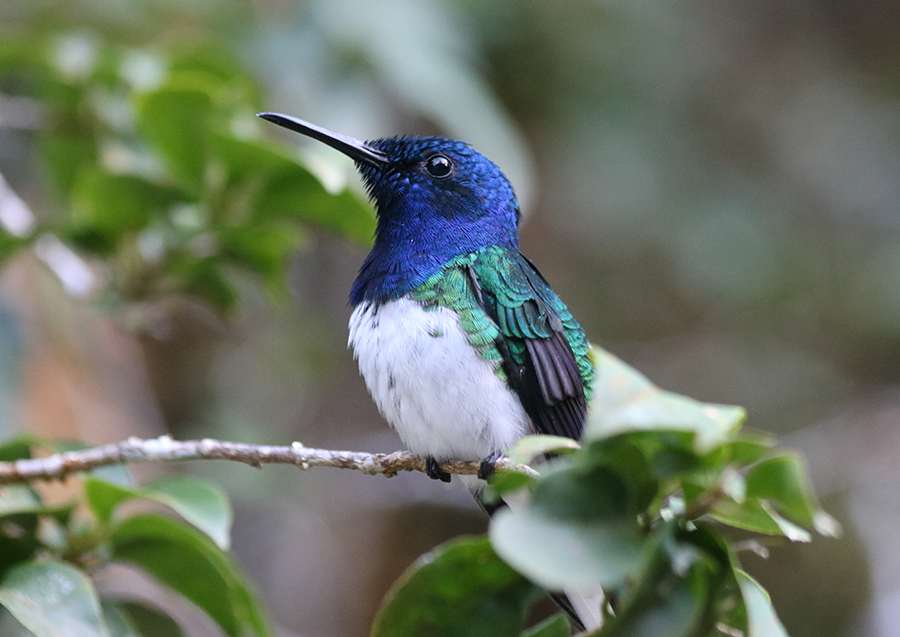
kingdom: Animalia
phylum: Chordata
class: Aves
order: Apodiformes
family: Trochilidae
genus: Florisuga
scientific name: Florisuga mellivora
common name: White-necked jacobin
